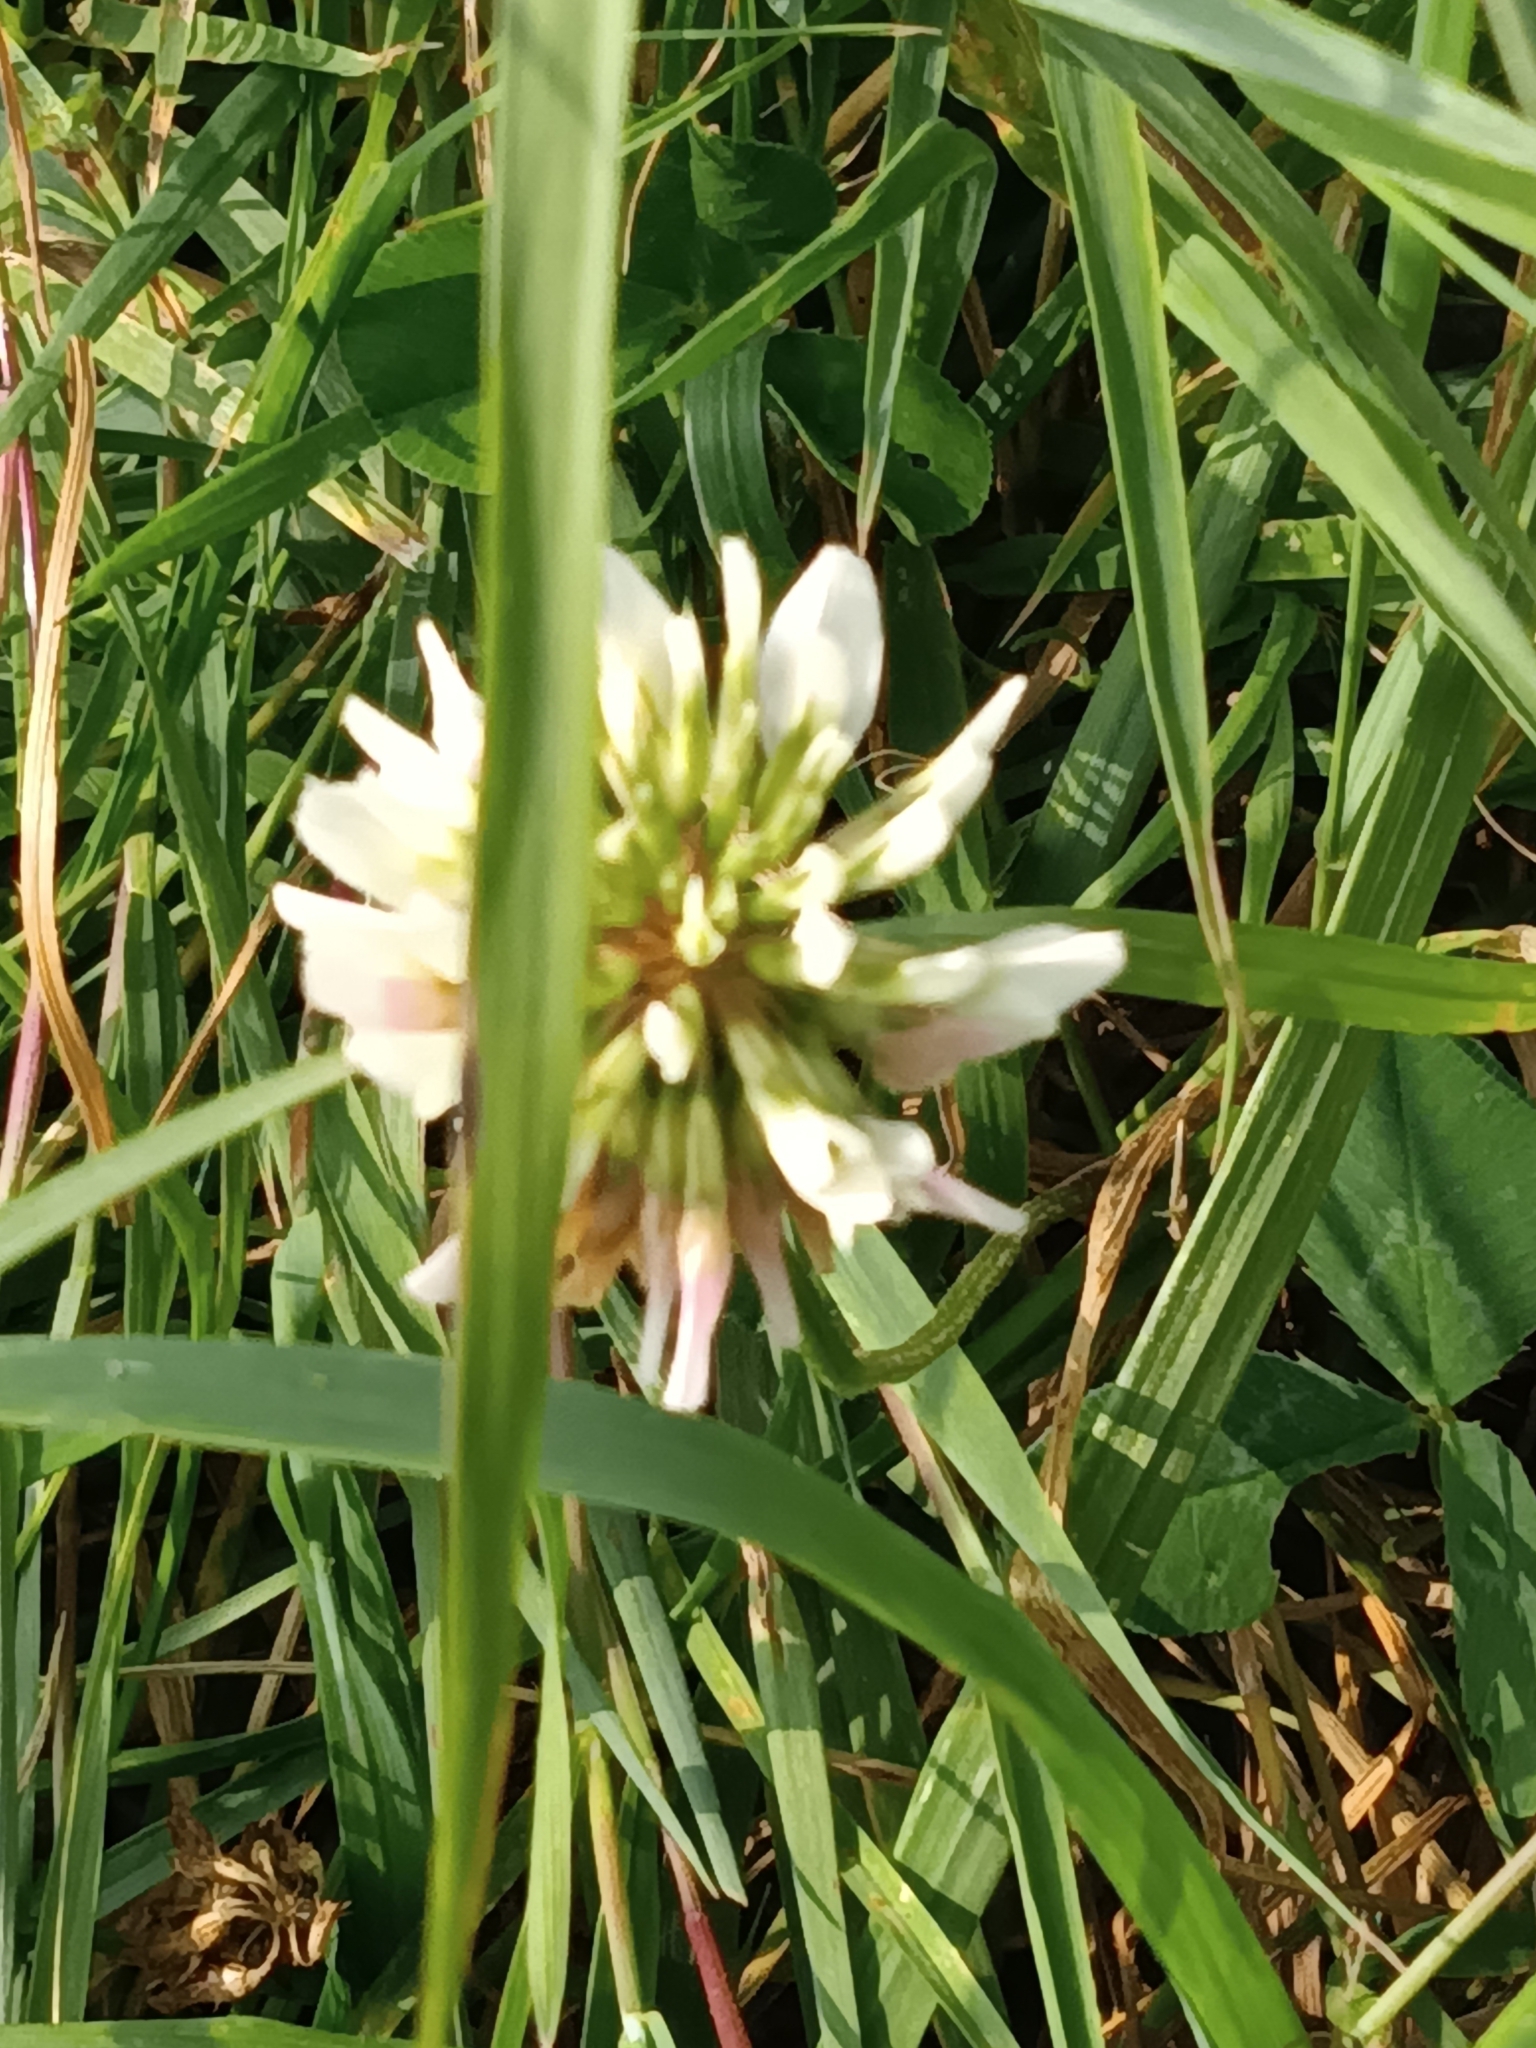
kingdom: Plantae
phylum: Tracheophyta
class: Magnoliopsida
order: Fabales
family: Fabaceae
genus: Trifolium
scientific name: Trifolium repens
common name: White clover
